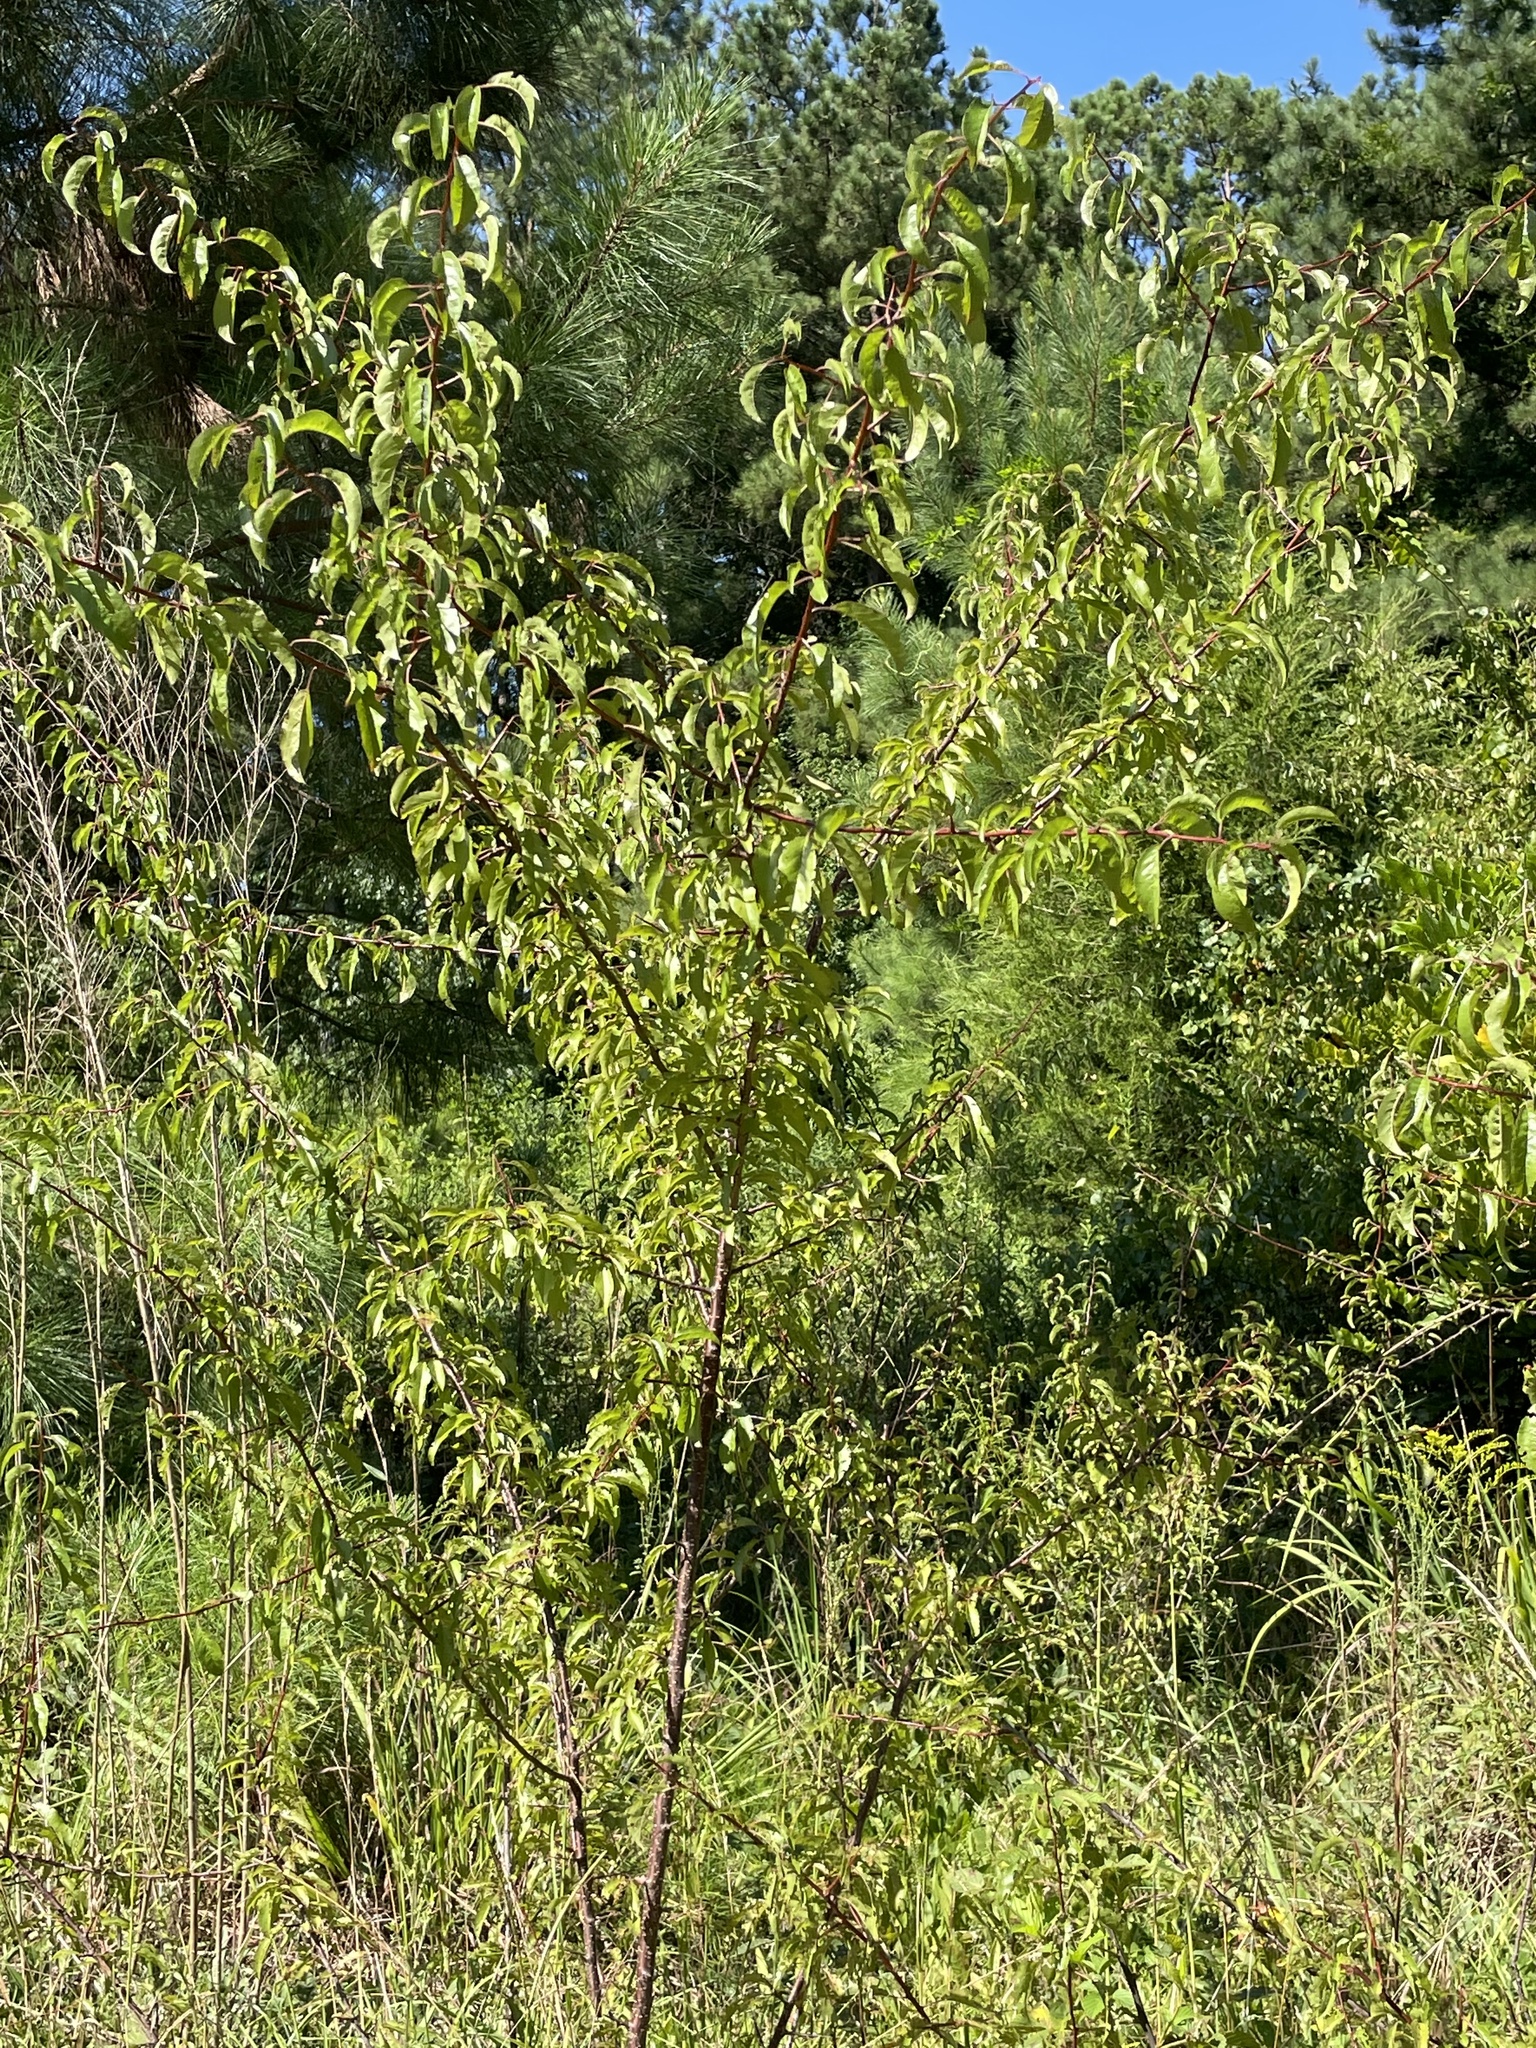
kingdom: Plantae
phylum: Tracheophyta
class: Magnoliopsida
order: Rosales
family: Rosaceae
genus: Prunus
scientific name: Prunus angustifolia
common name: Cherokee plum
